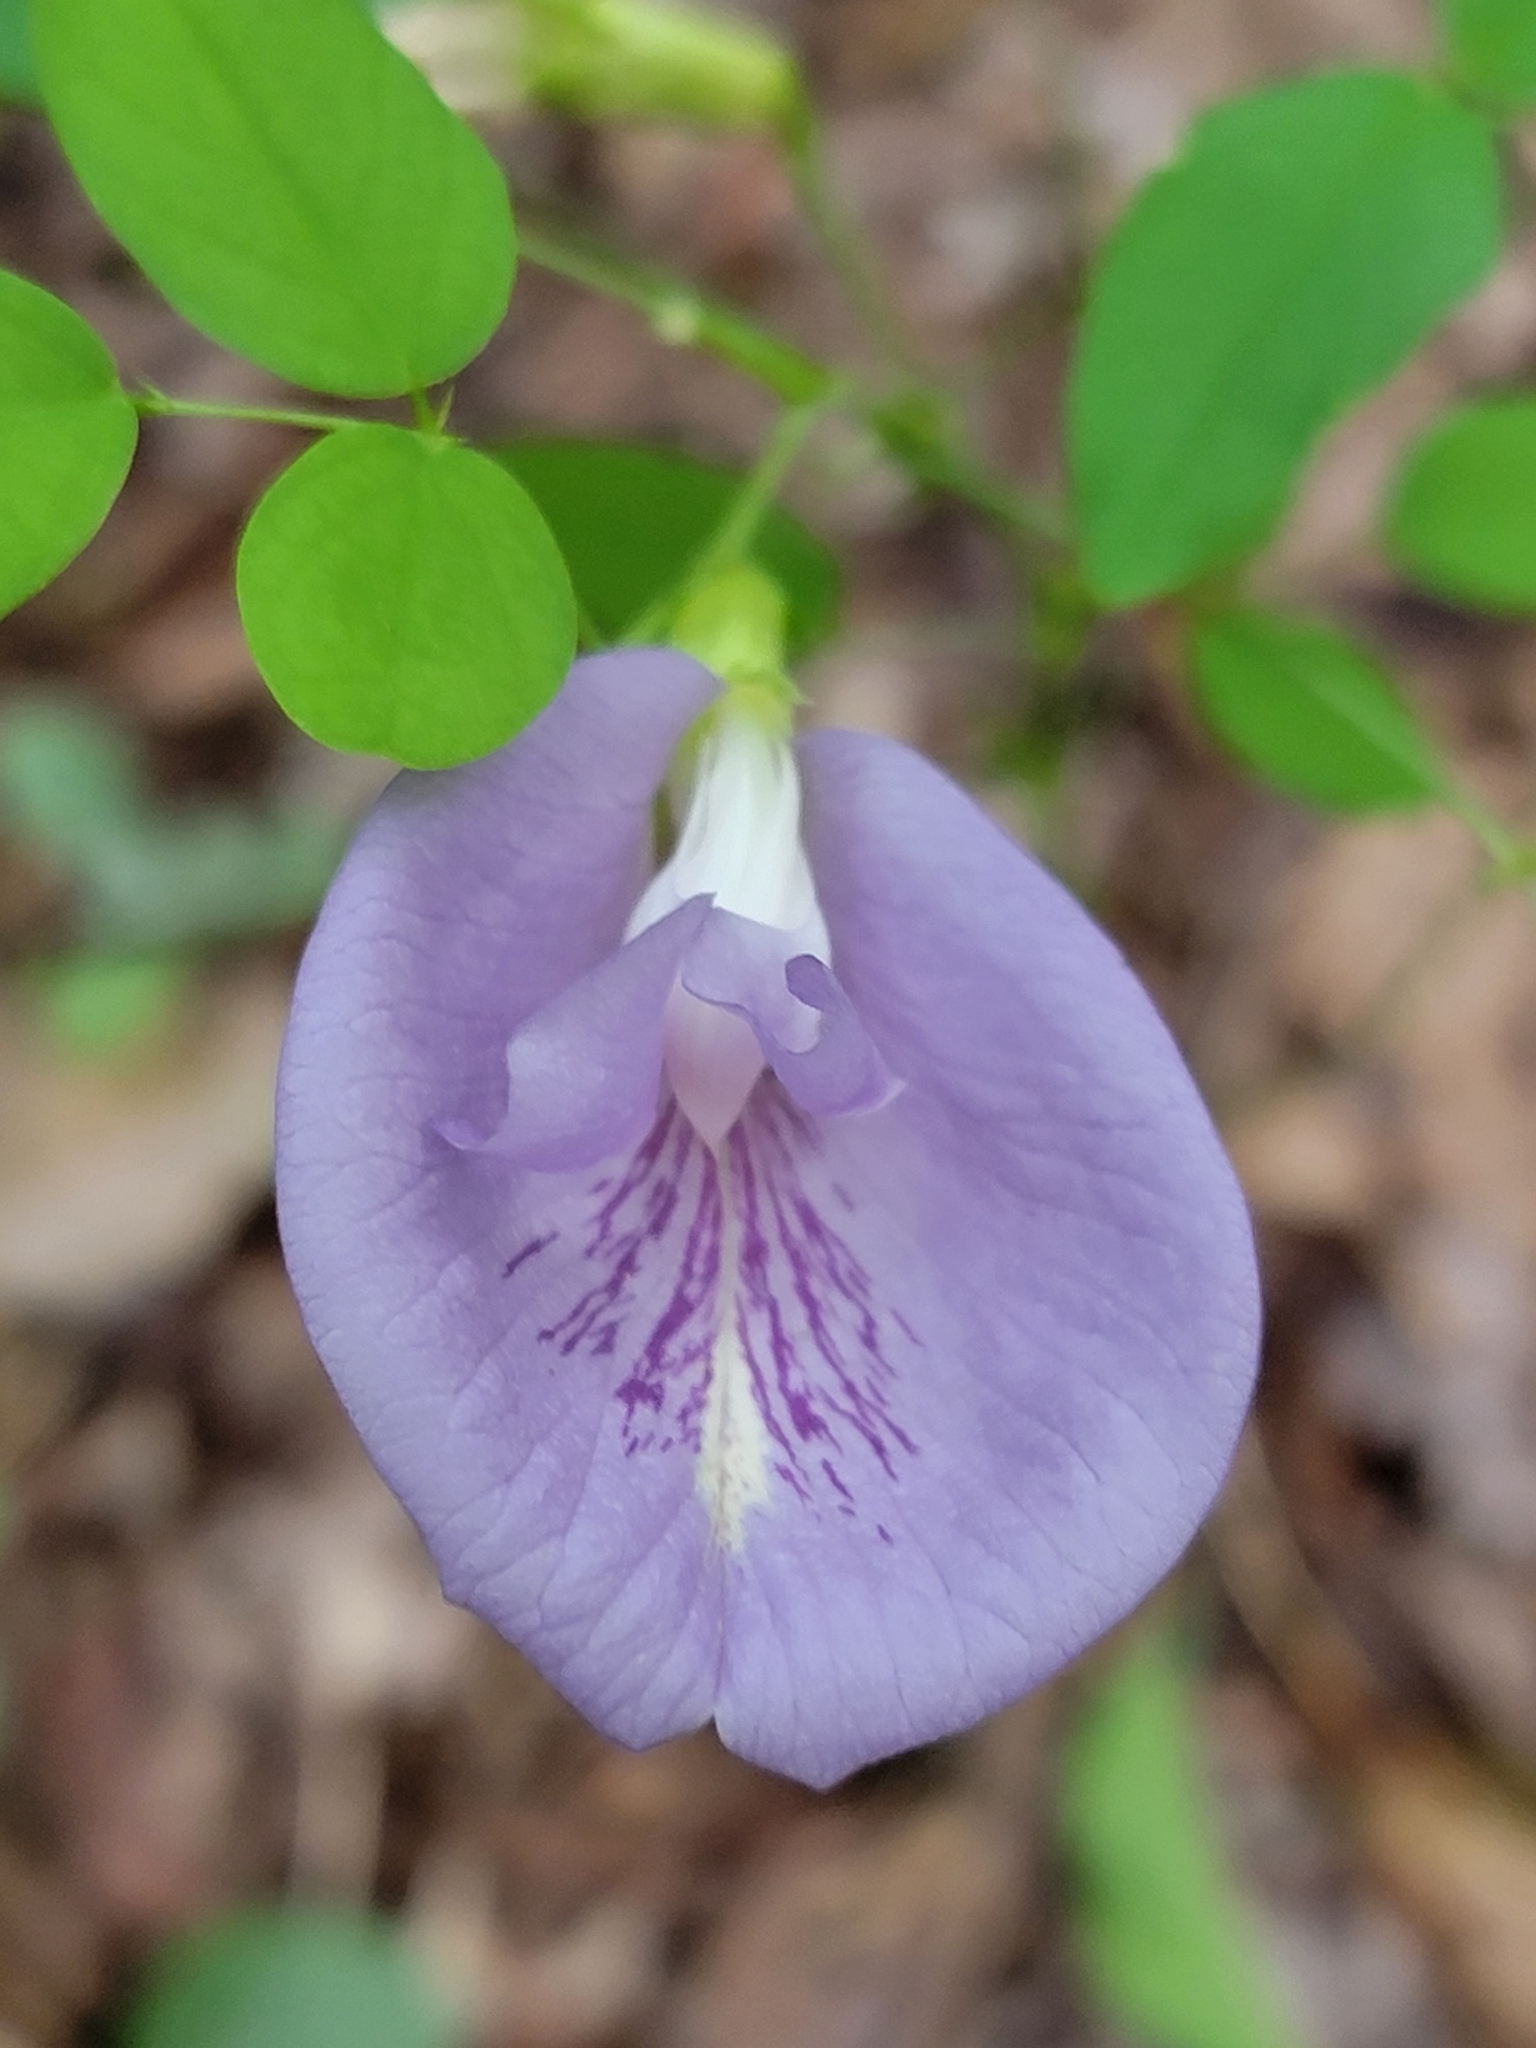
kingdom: Plantae
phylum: Tracheophyta
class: Magnoliopsida
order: Fabales
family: Fabaceae
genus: Clitoria
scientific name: Clitoria mariana
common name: Butterfly-pea
